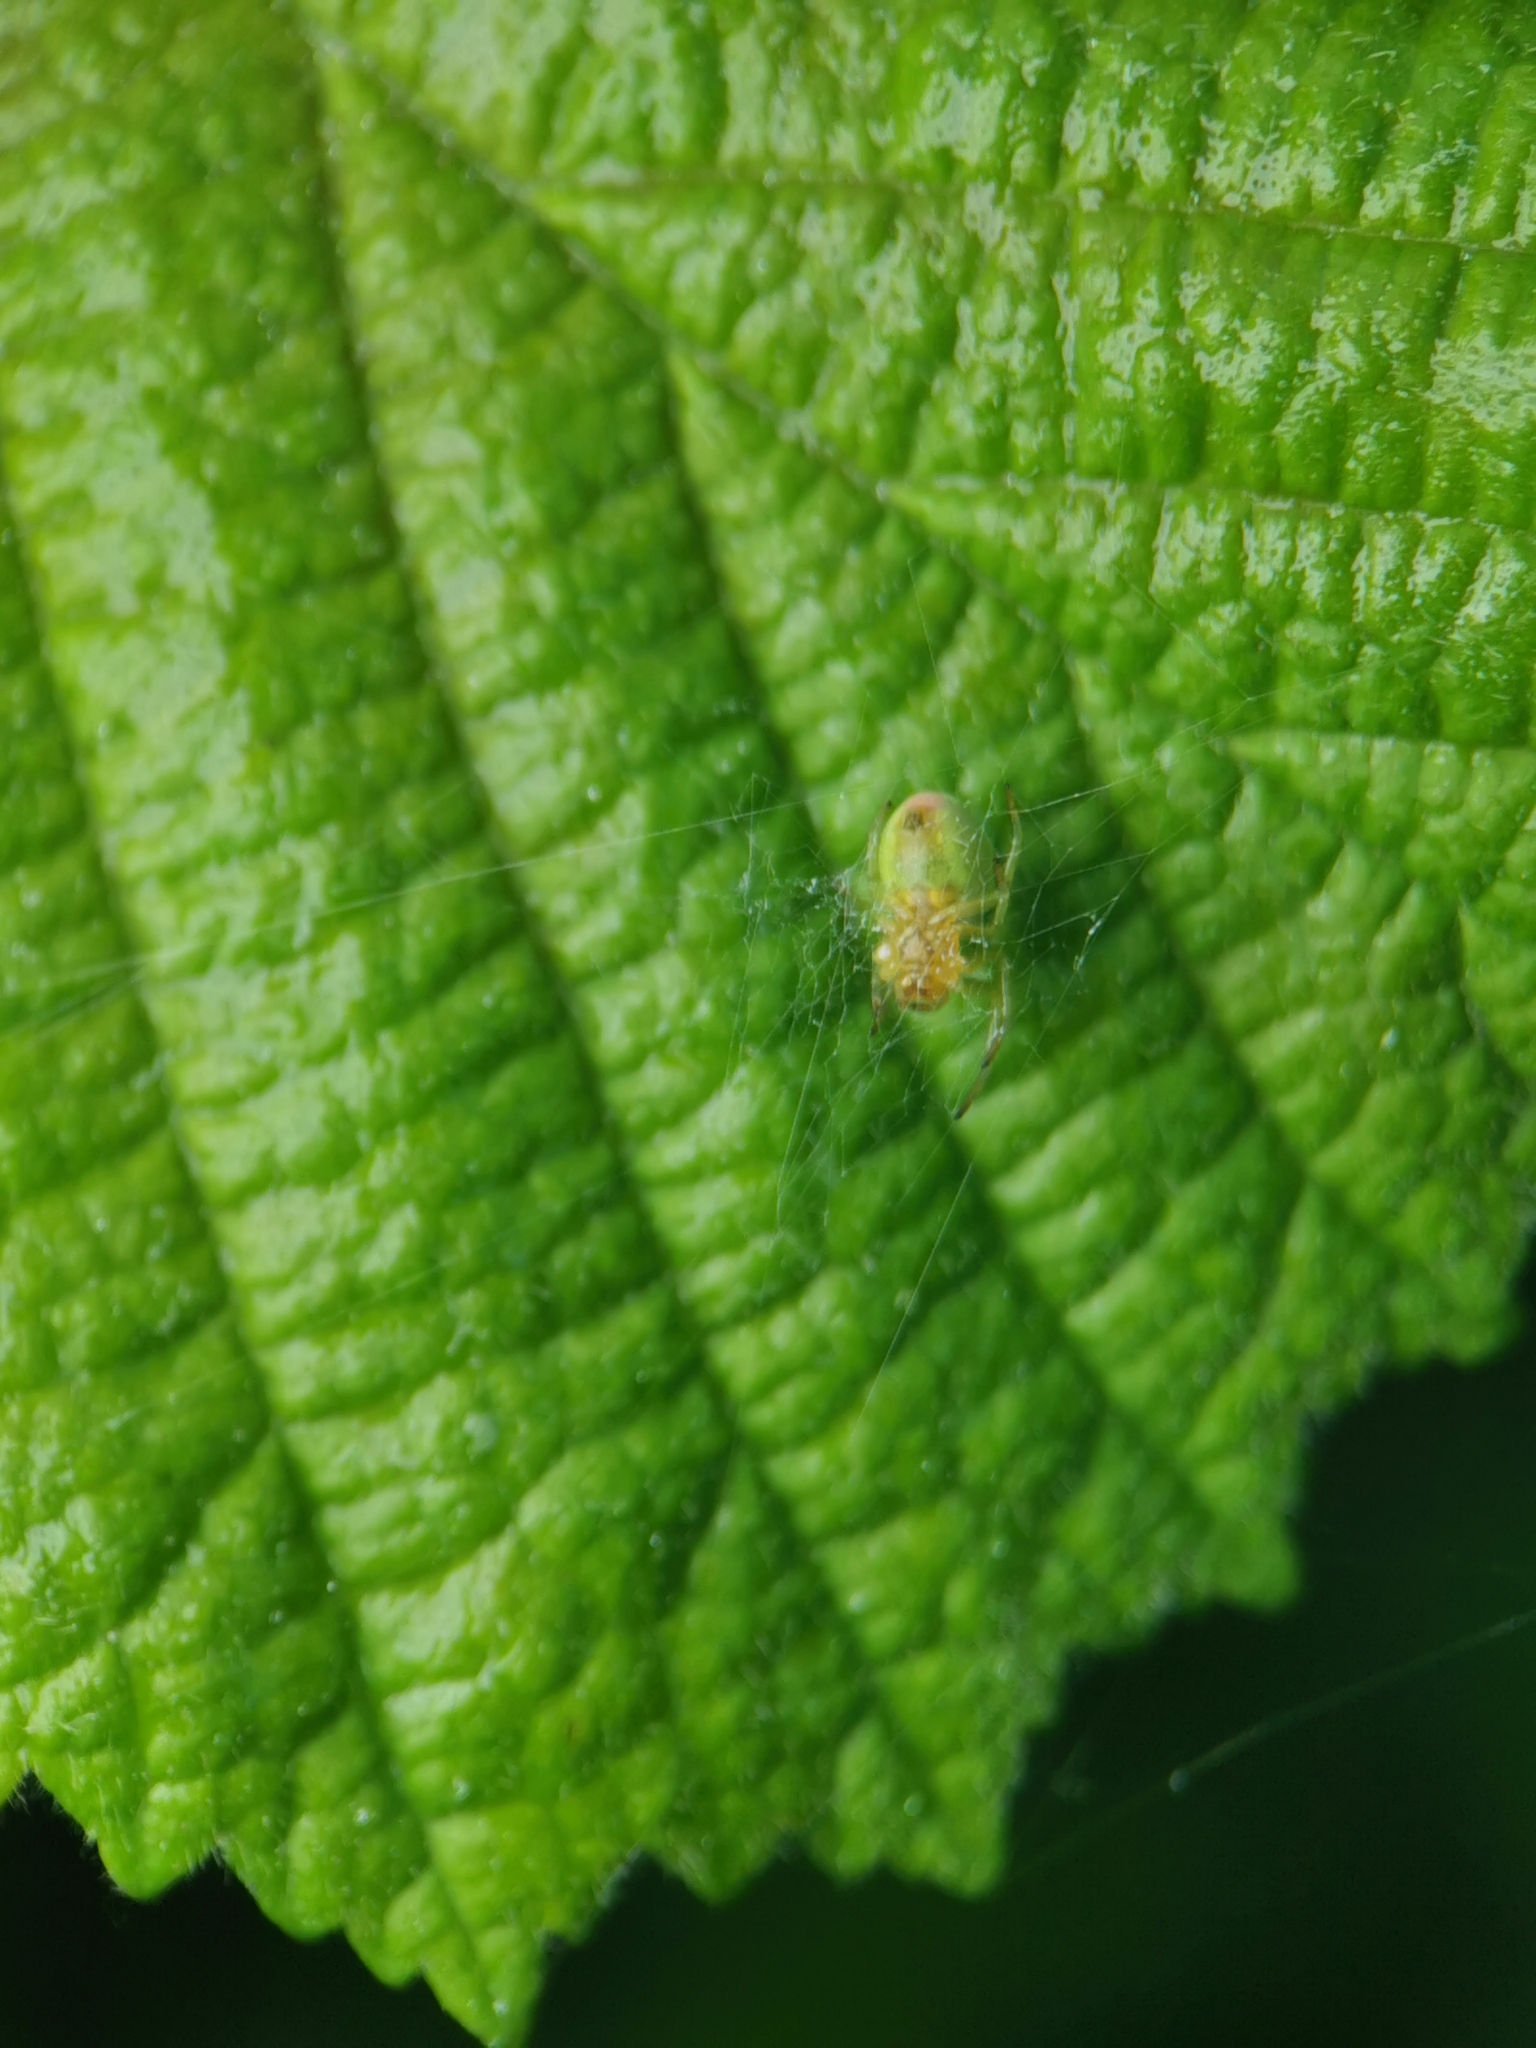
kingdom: Animalia
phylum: Arthropoda
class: Arachnida
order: Araneae
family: Araneidae
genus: Araniella
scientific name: Araniella
